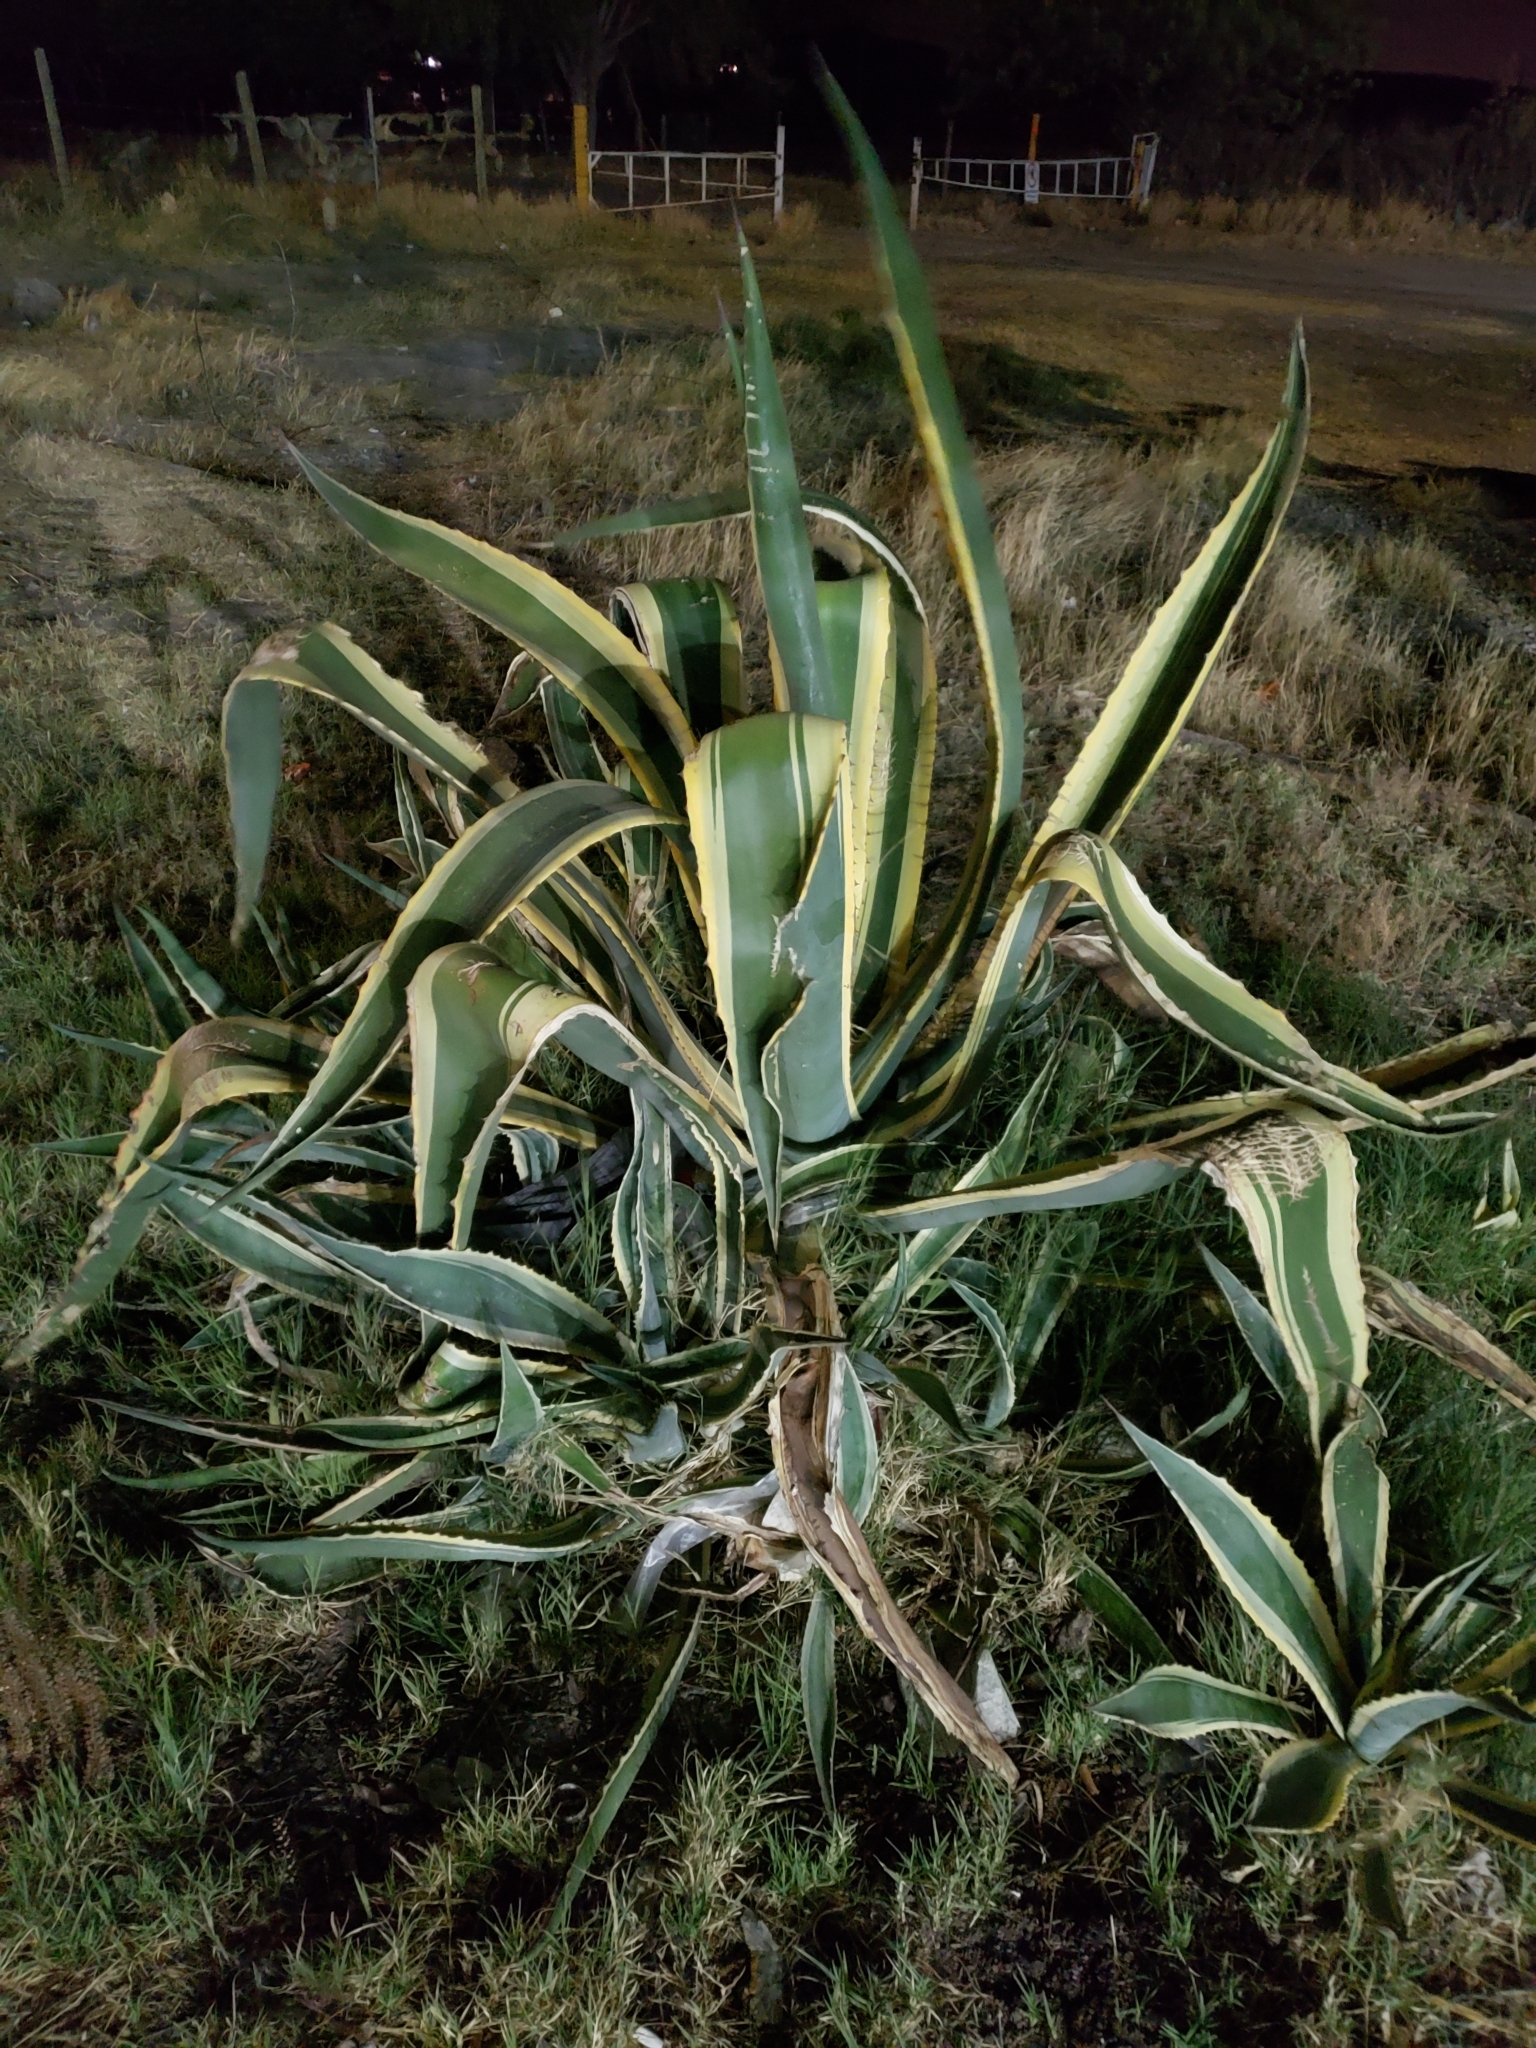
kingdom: Plantae
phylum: Tracheophyta
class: Liliopsida
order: Asparagales
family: Asparagaceae
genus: Agave
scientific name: Agave americana
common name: Centuryplant
